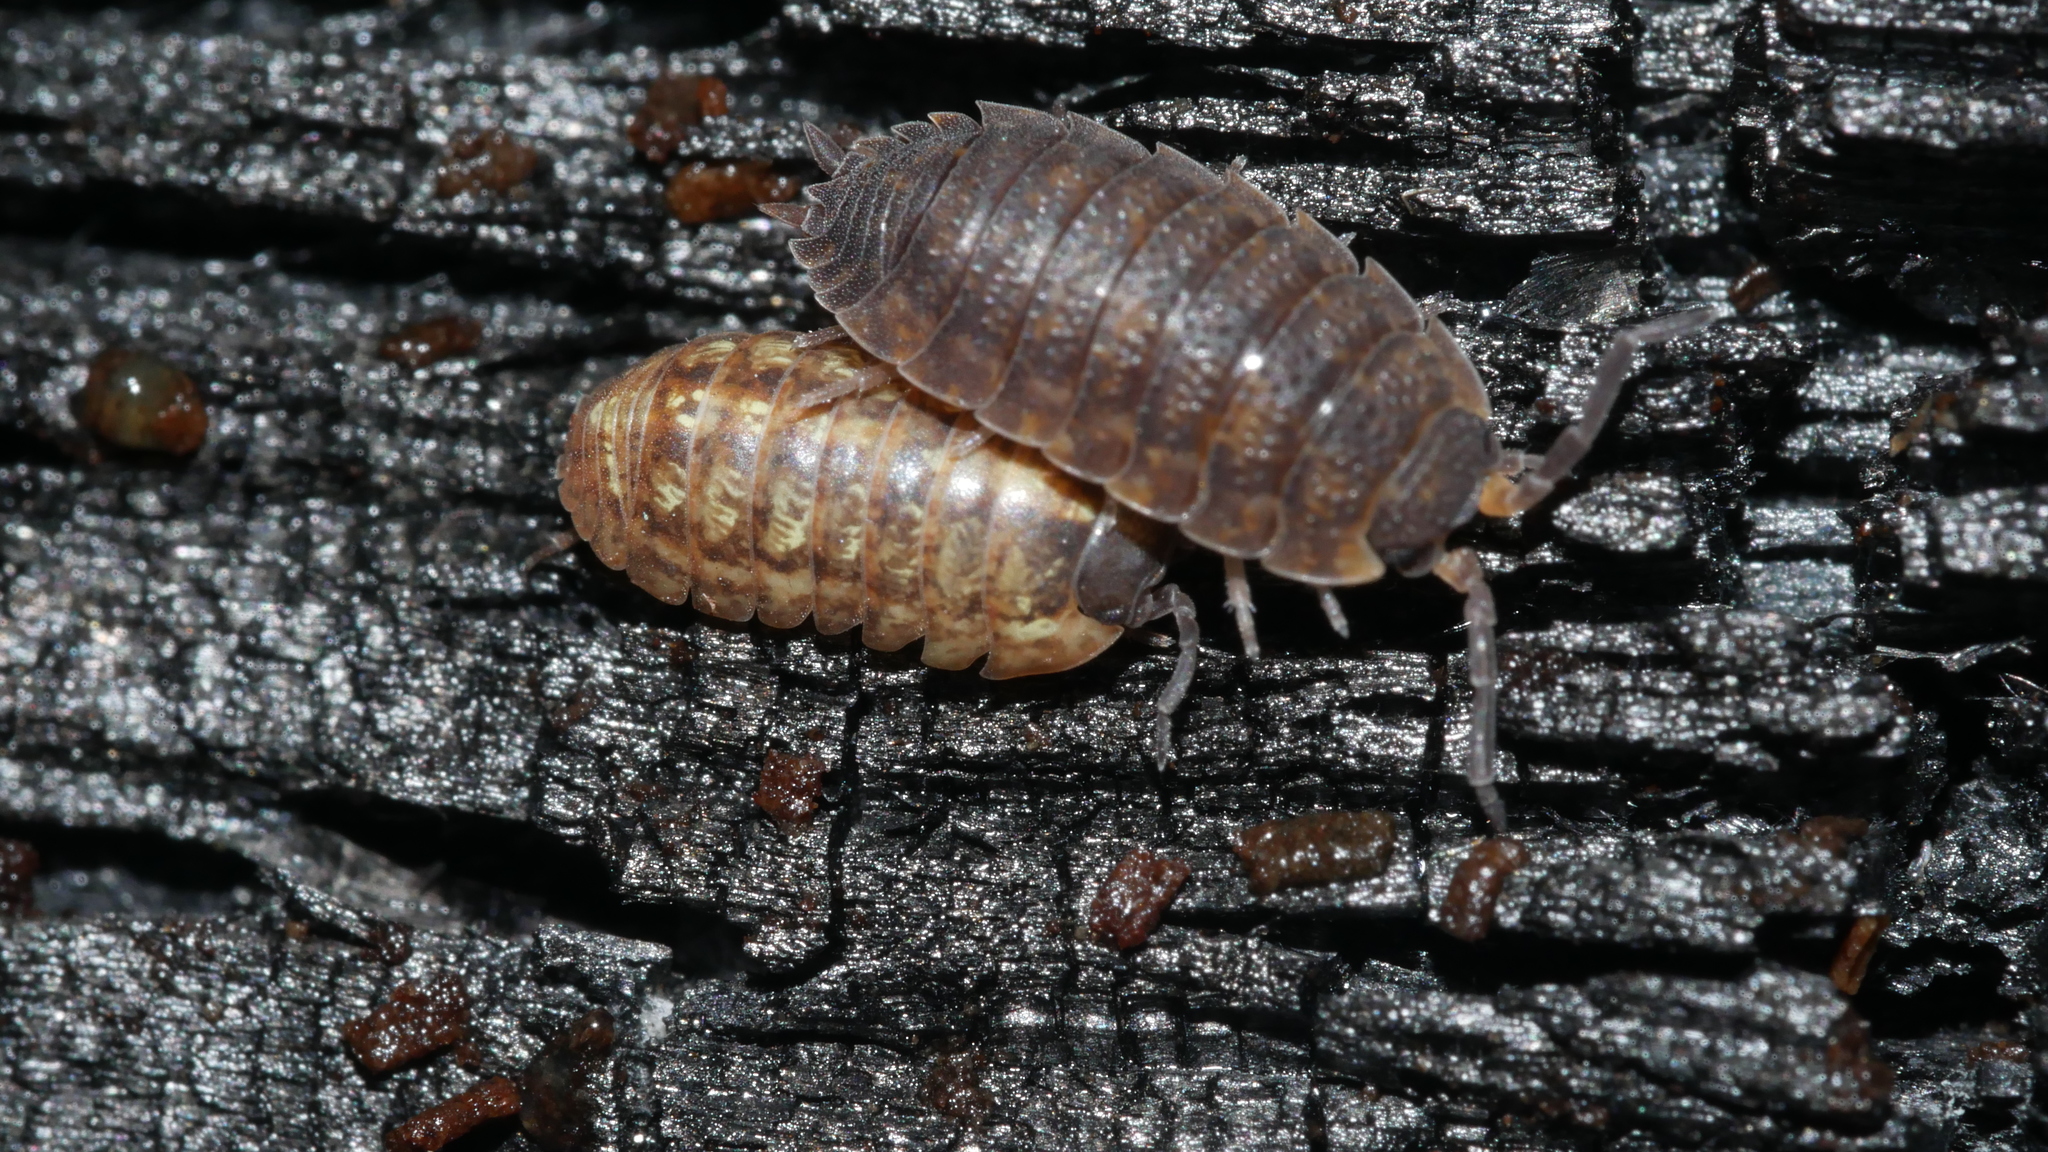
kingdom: Animalia
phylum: Arthropoda
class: Malacostraca
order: Isopoda
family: Porcellionidae
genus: Porcellio
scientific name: Porcellio scaber
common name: Common rough woodlouse
